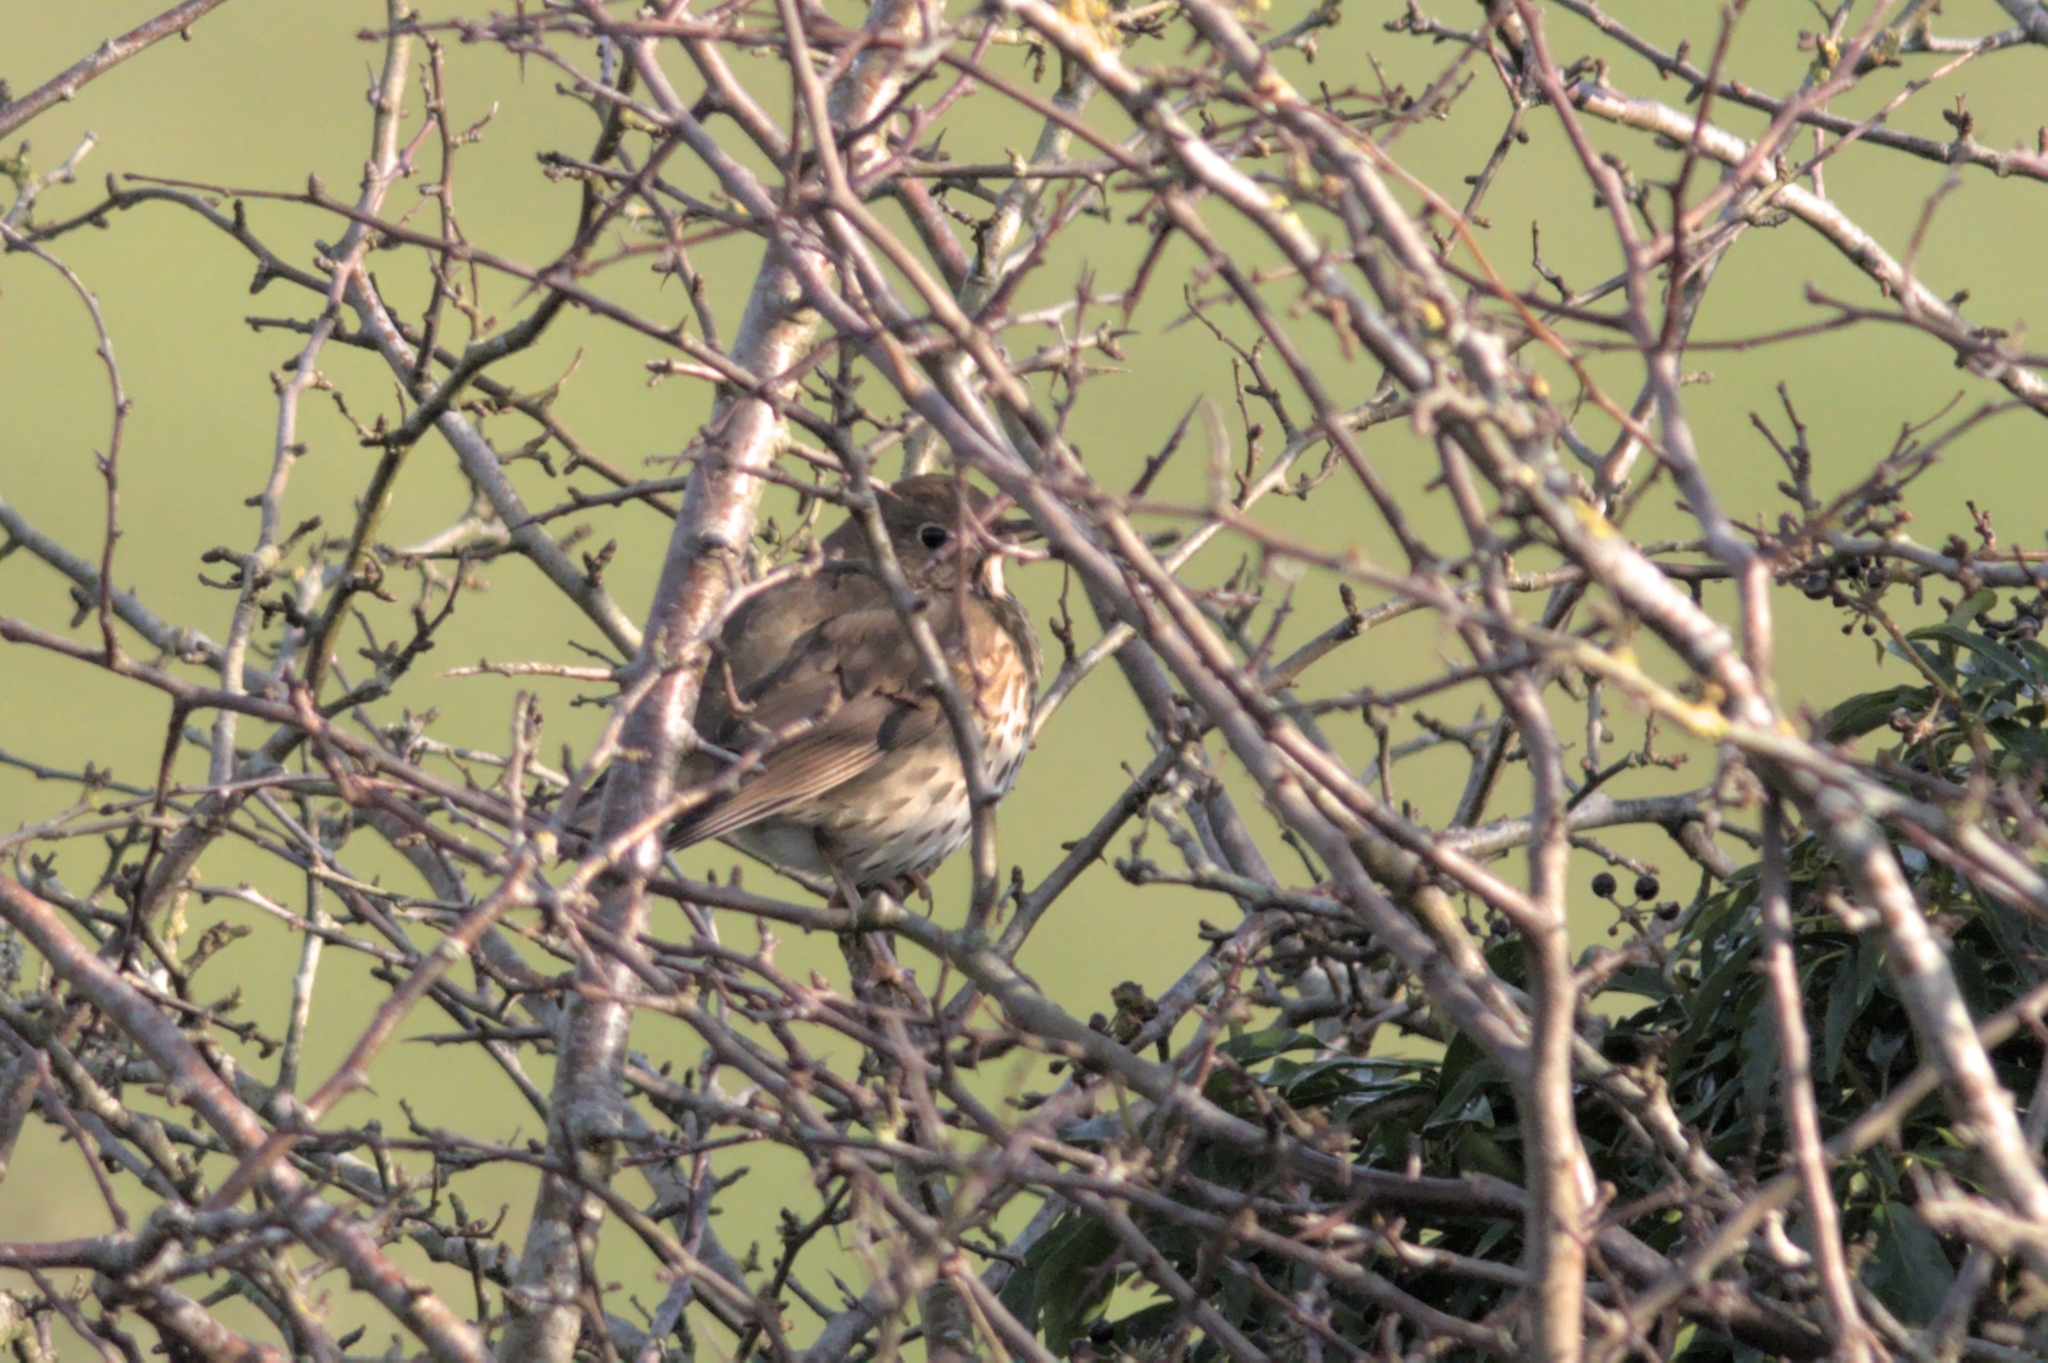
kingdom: Animalia
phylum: Chordata
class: Aves
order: Passeriformes
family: Turdidae
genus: Turdus
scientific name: Turdus philomelos
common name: Song thrush
